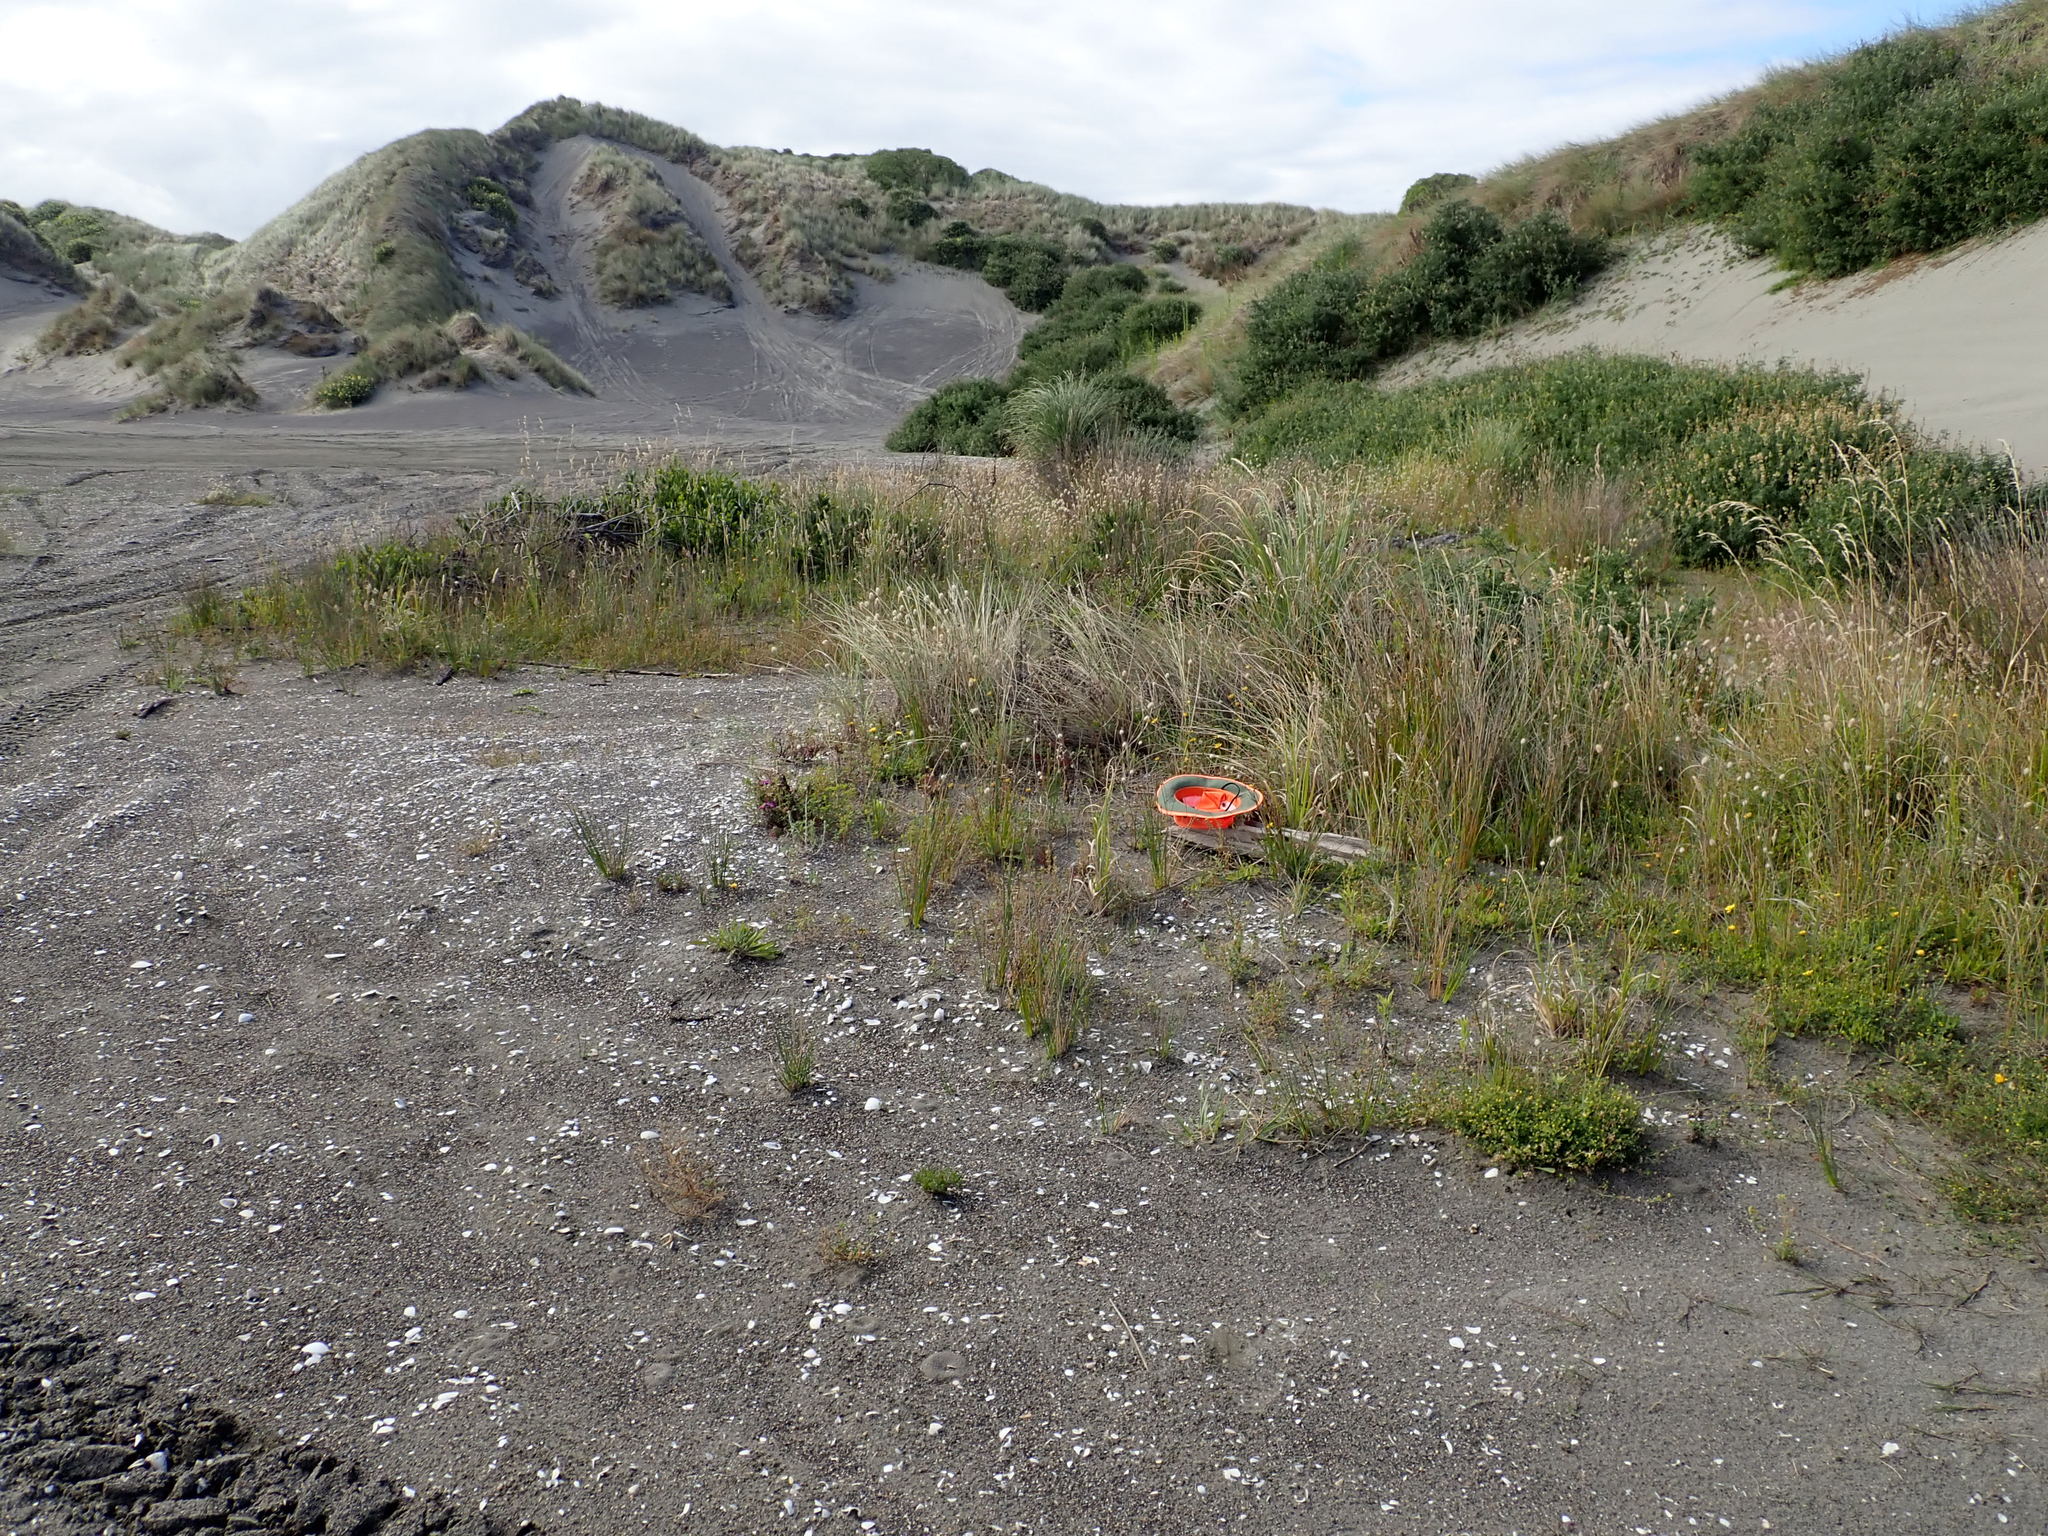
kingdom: Animalia
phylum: Arthropoda
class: Malacostraca
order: Isopoda
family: Porcellionidae
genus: Porcellio
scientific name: Porcellio scaber
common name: Common rough woodlouse
